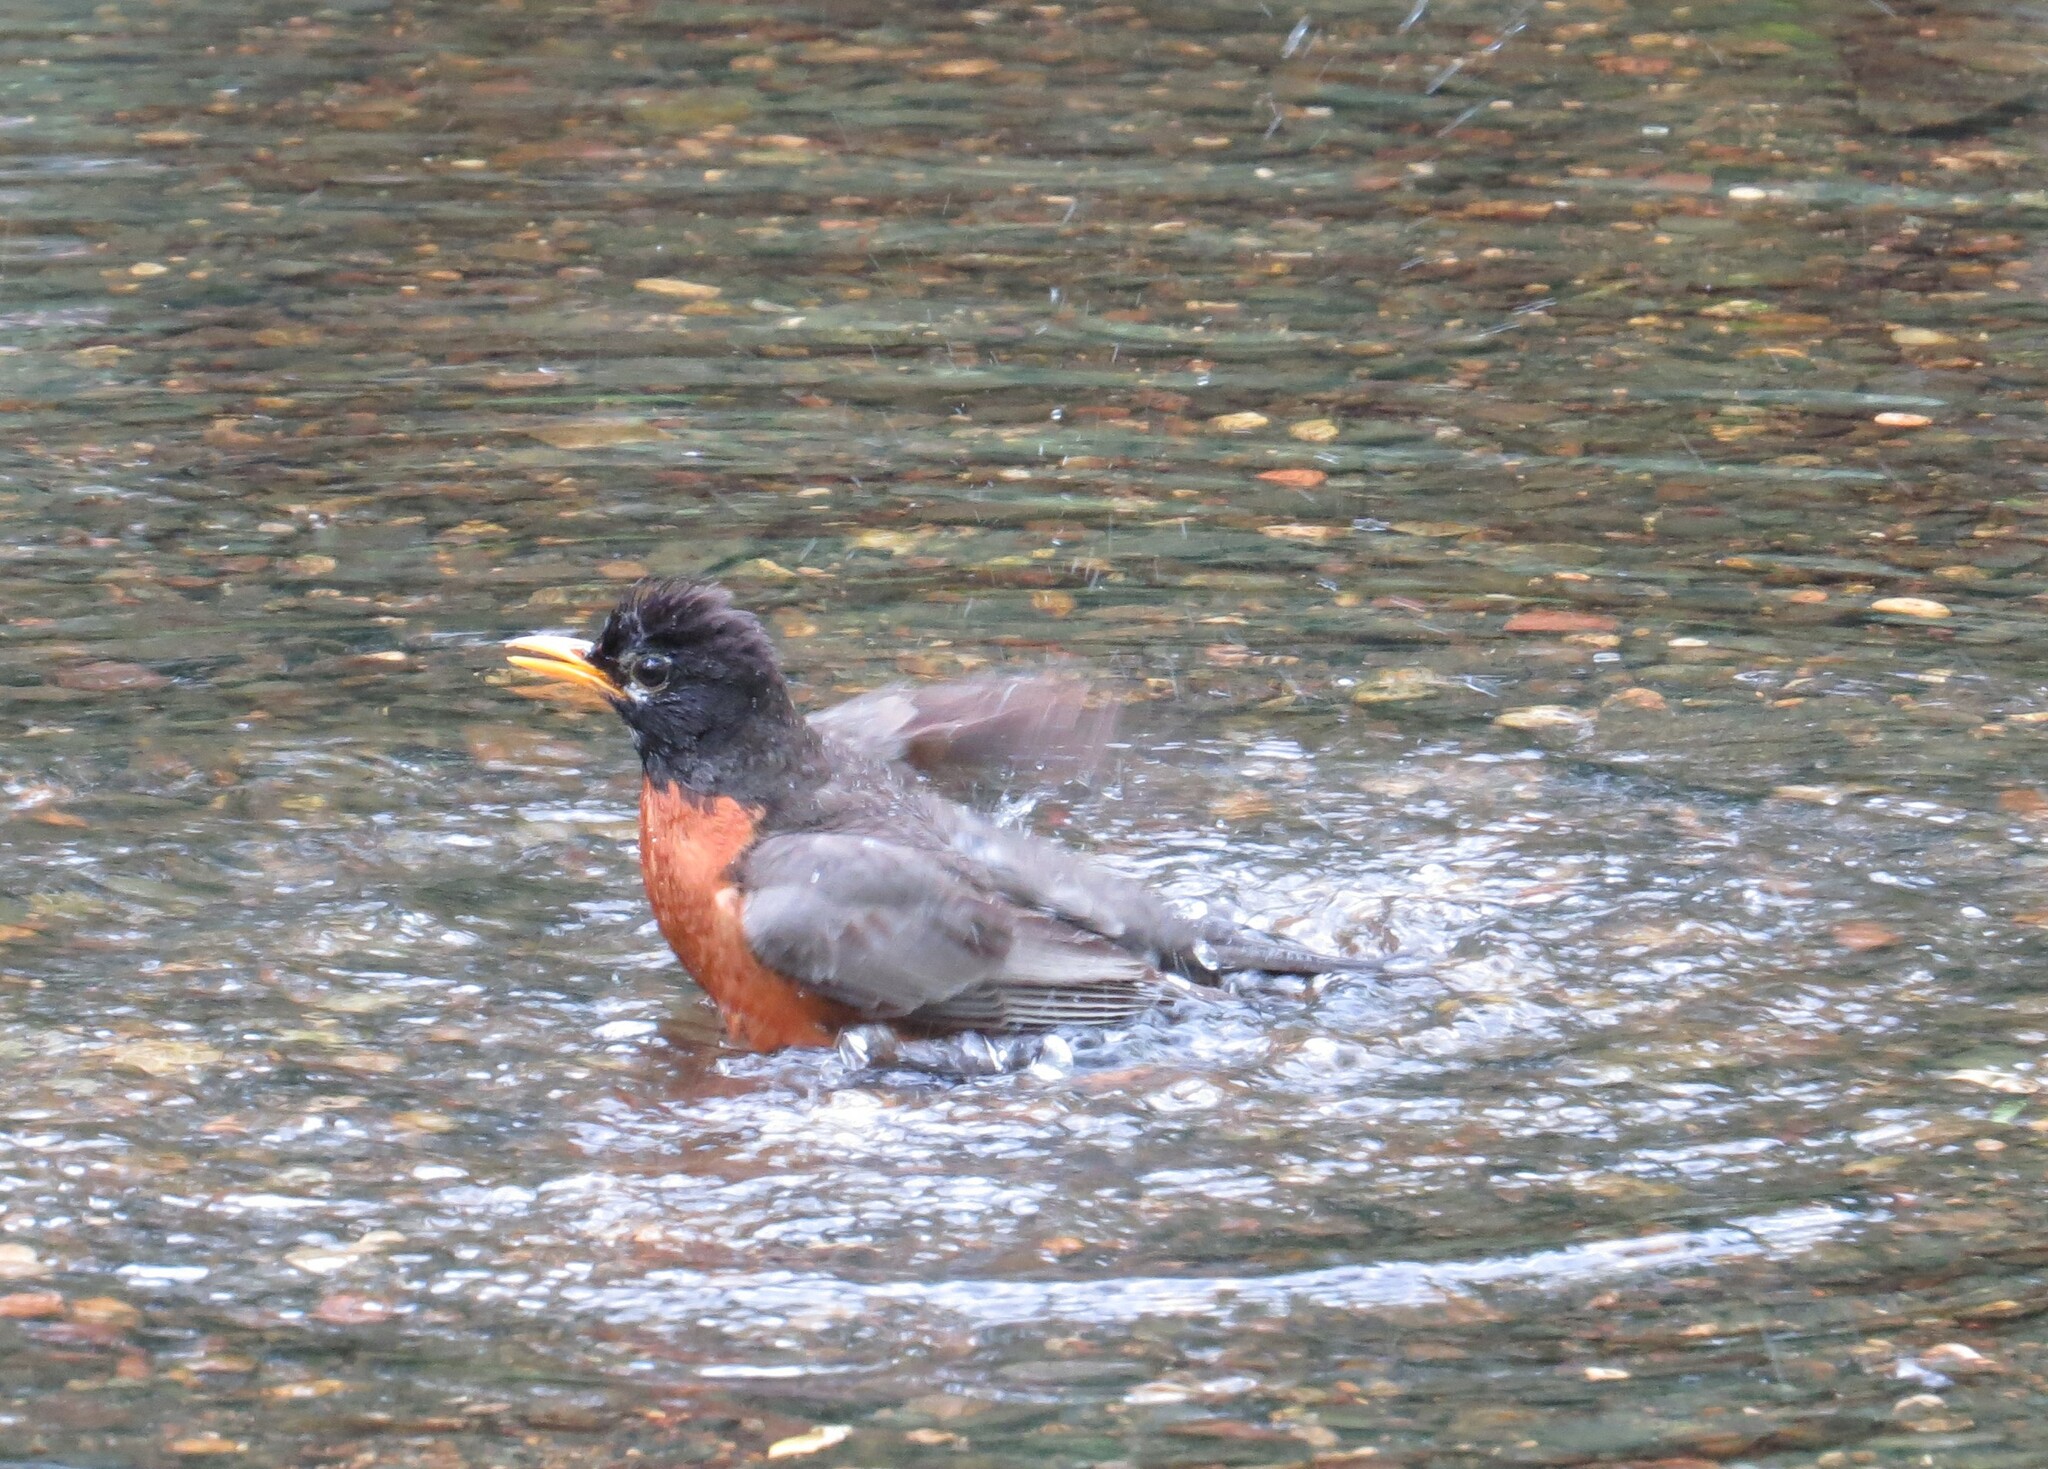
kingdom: Animalia
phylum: Chordata
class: Aves
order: Passeriformes
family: Turdidae
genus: Turdus
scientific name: Turdus migratorius
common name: American robin
